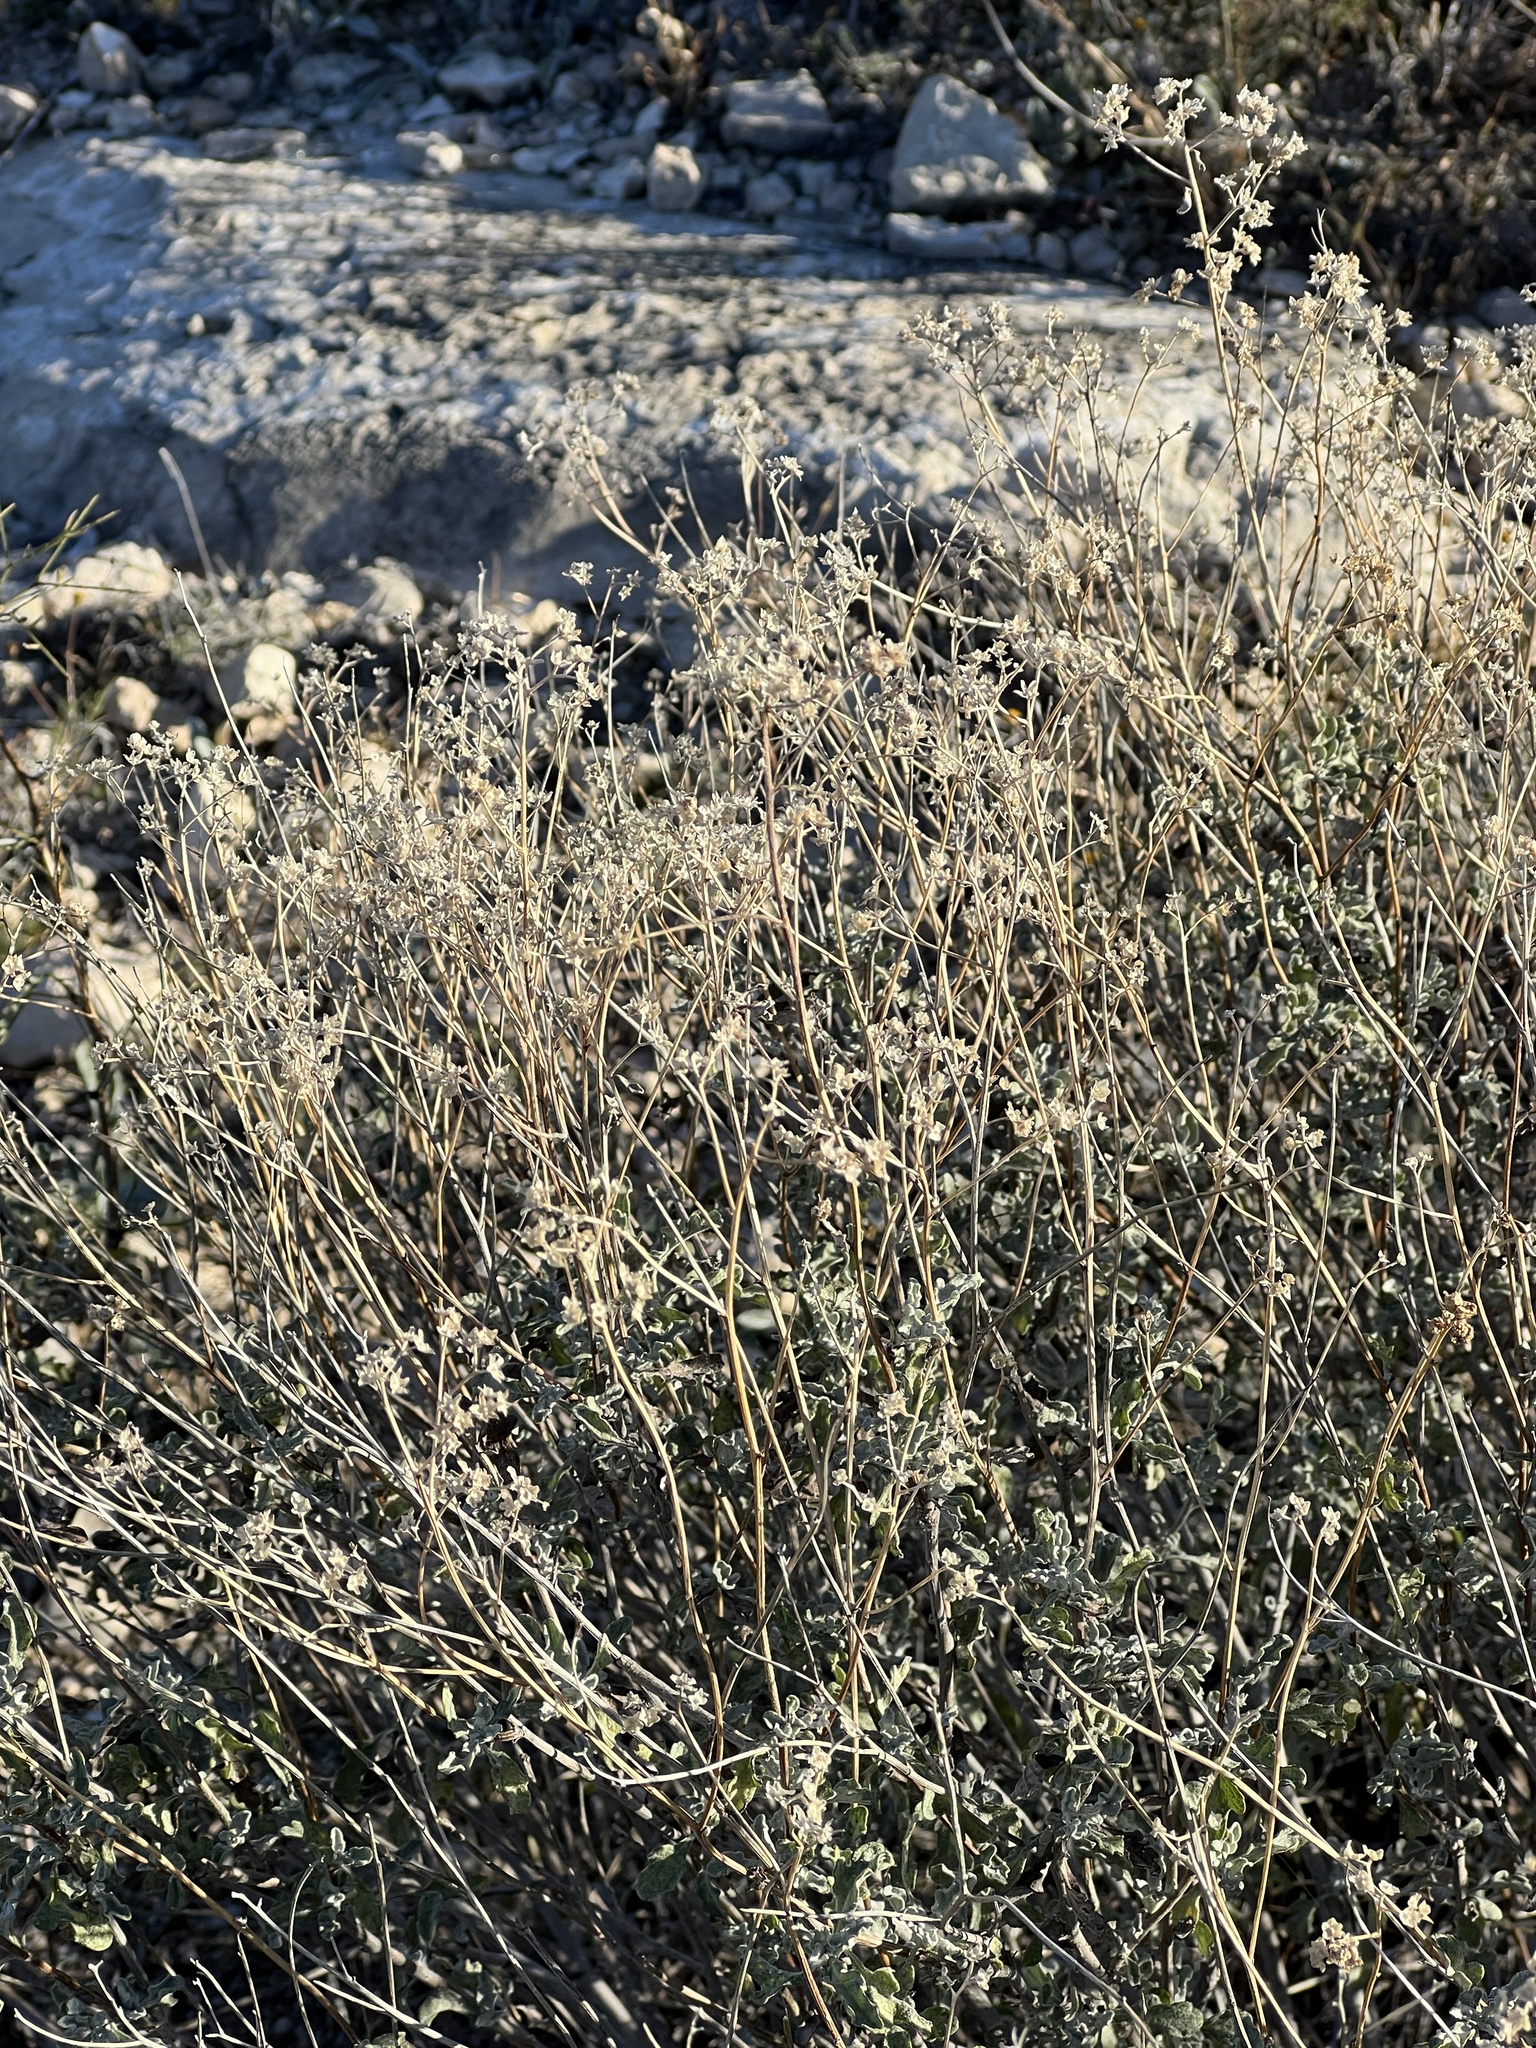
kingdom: Plantae
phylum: Tracheophyta
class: Magnoliopsida
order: Asterales
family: Asteraceae
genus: Parthenium
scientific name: Parthenium incanum
